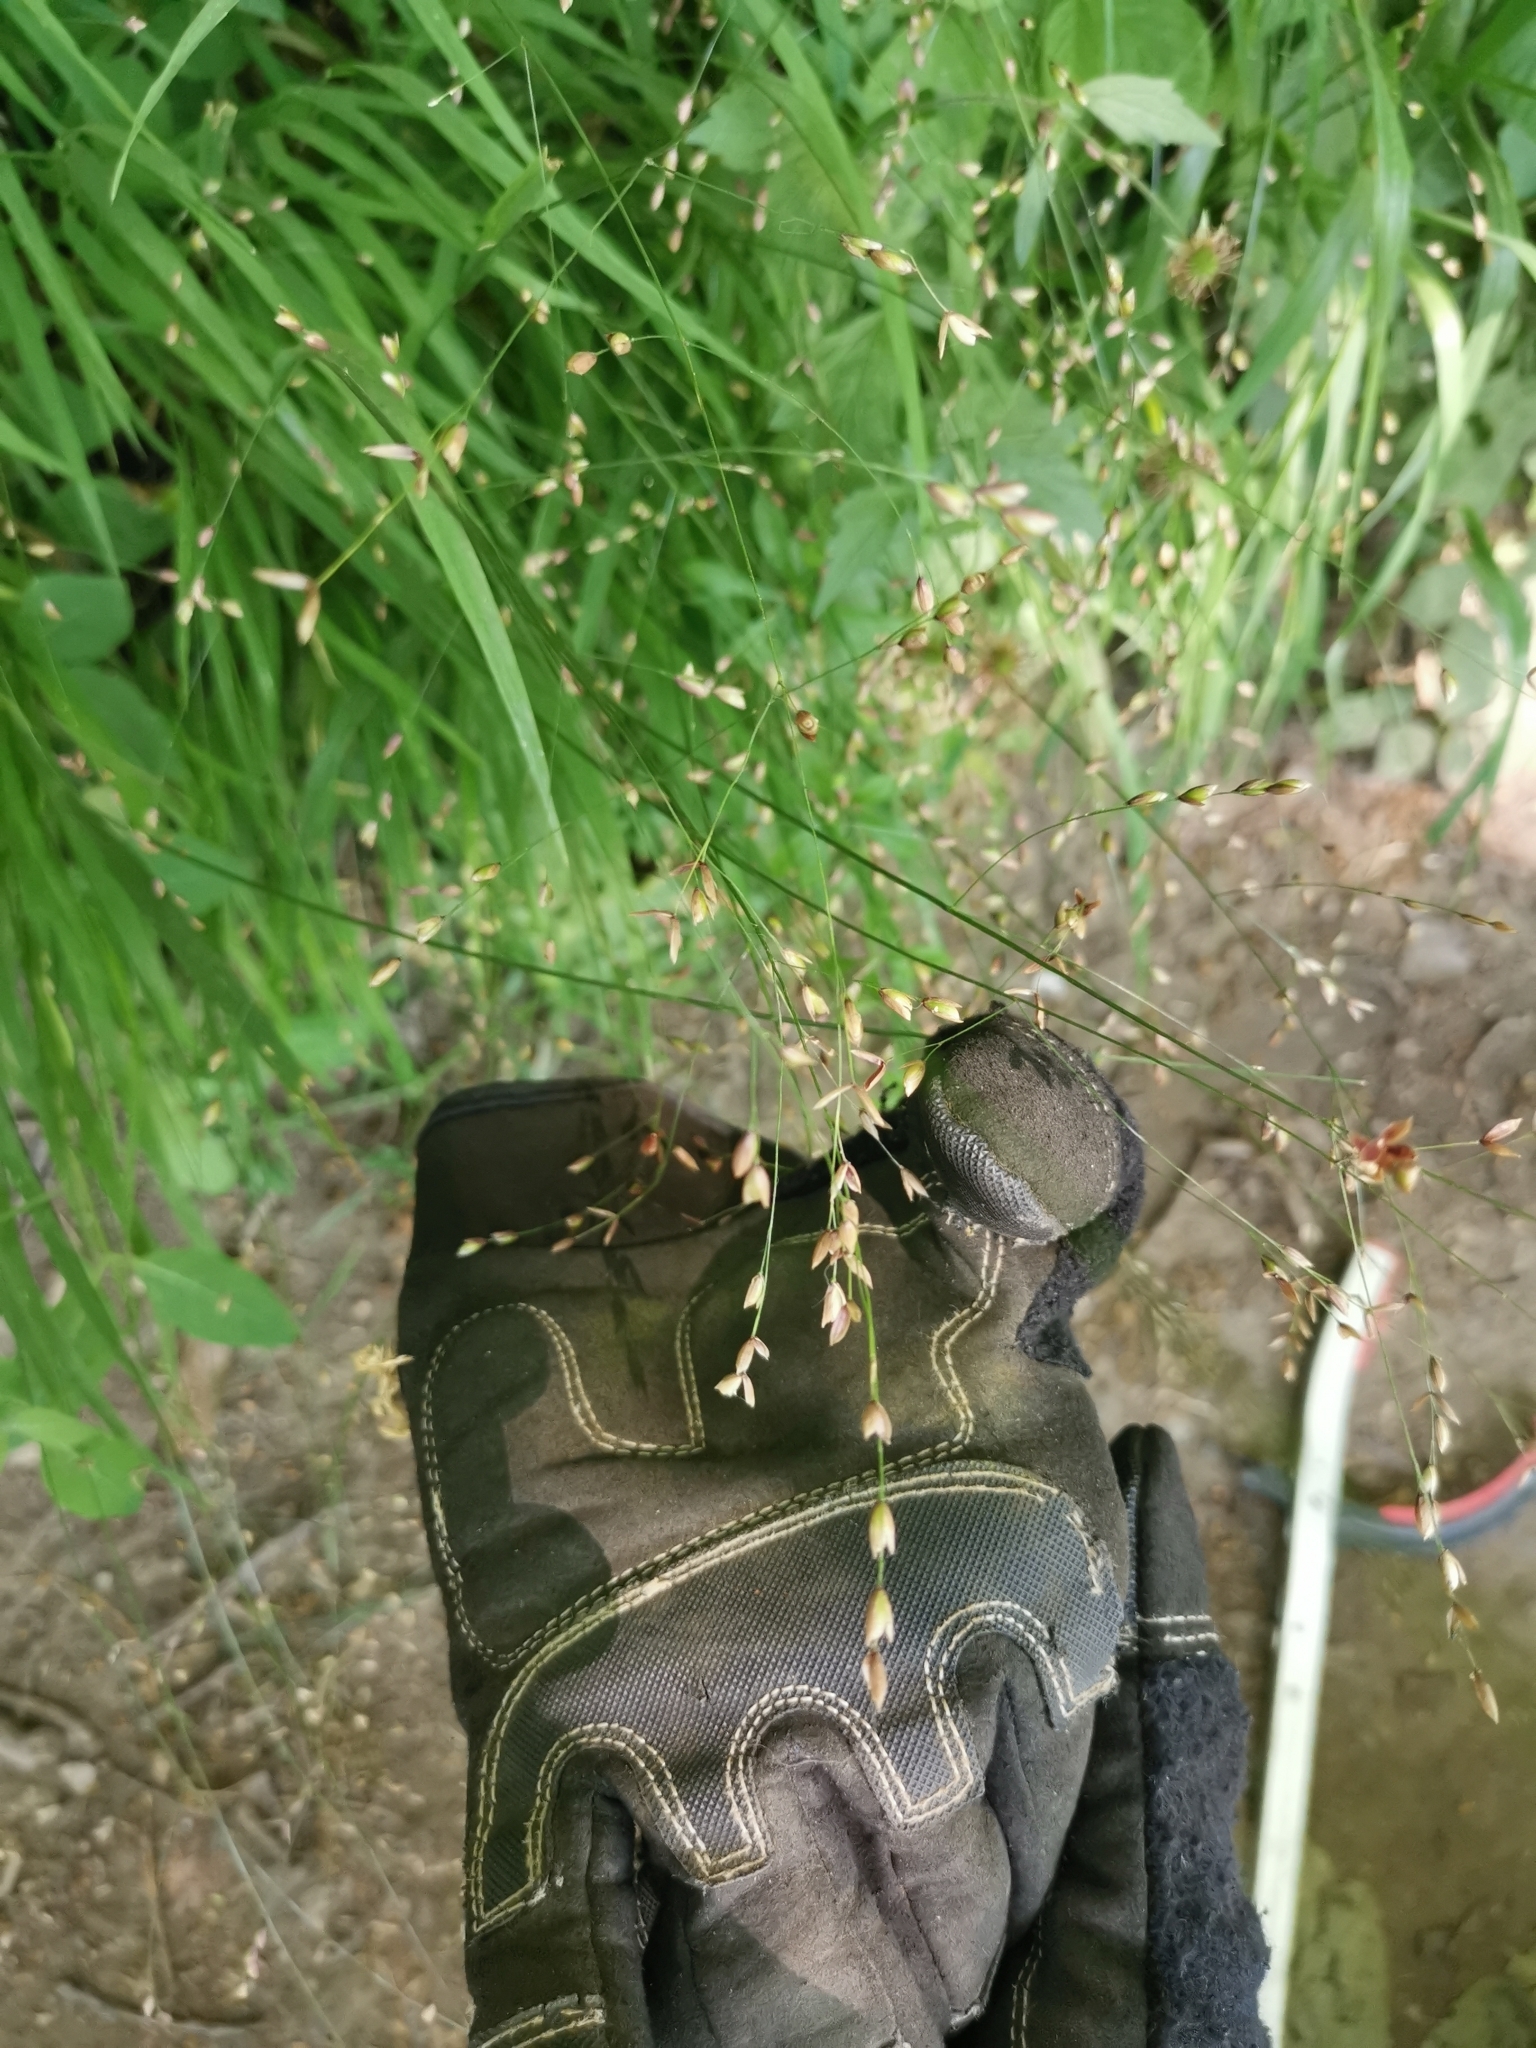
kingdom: Plantae
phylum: Tracheophyta
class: Liliopsida
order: Poales
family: Poaceae
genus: Melica
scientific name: Melica uniflora
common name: Wood melick
